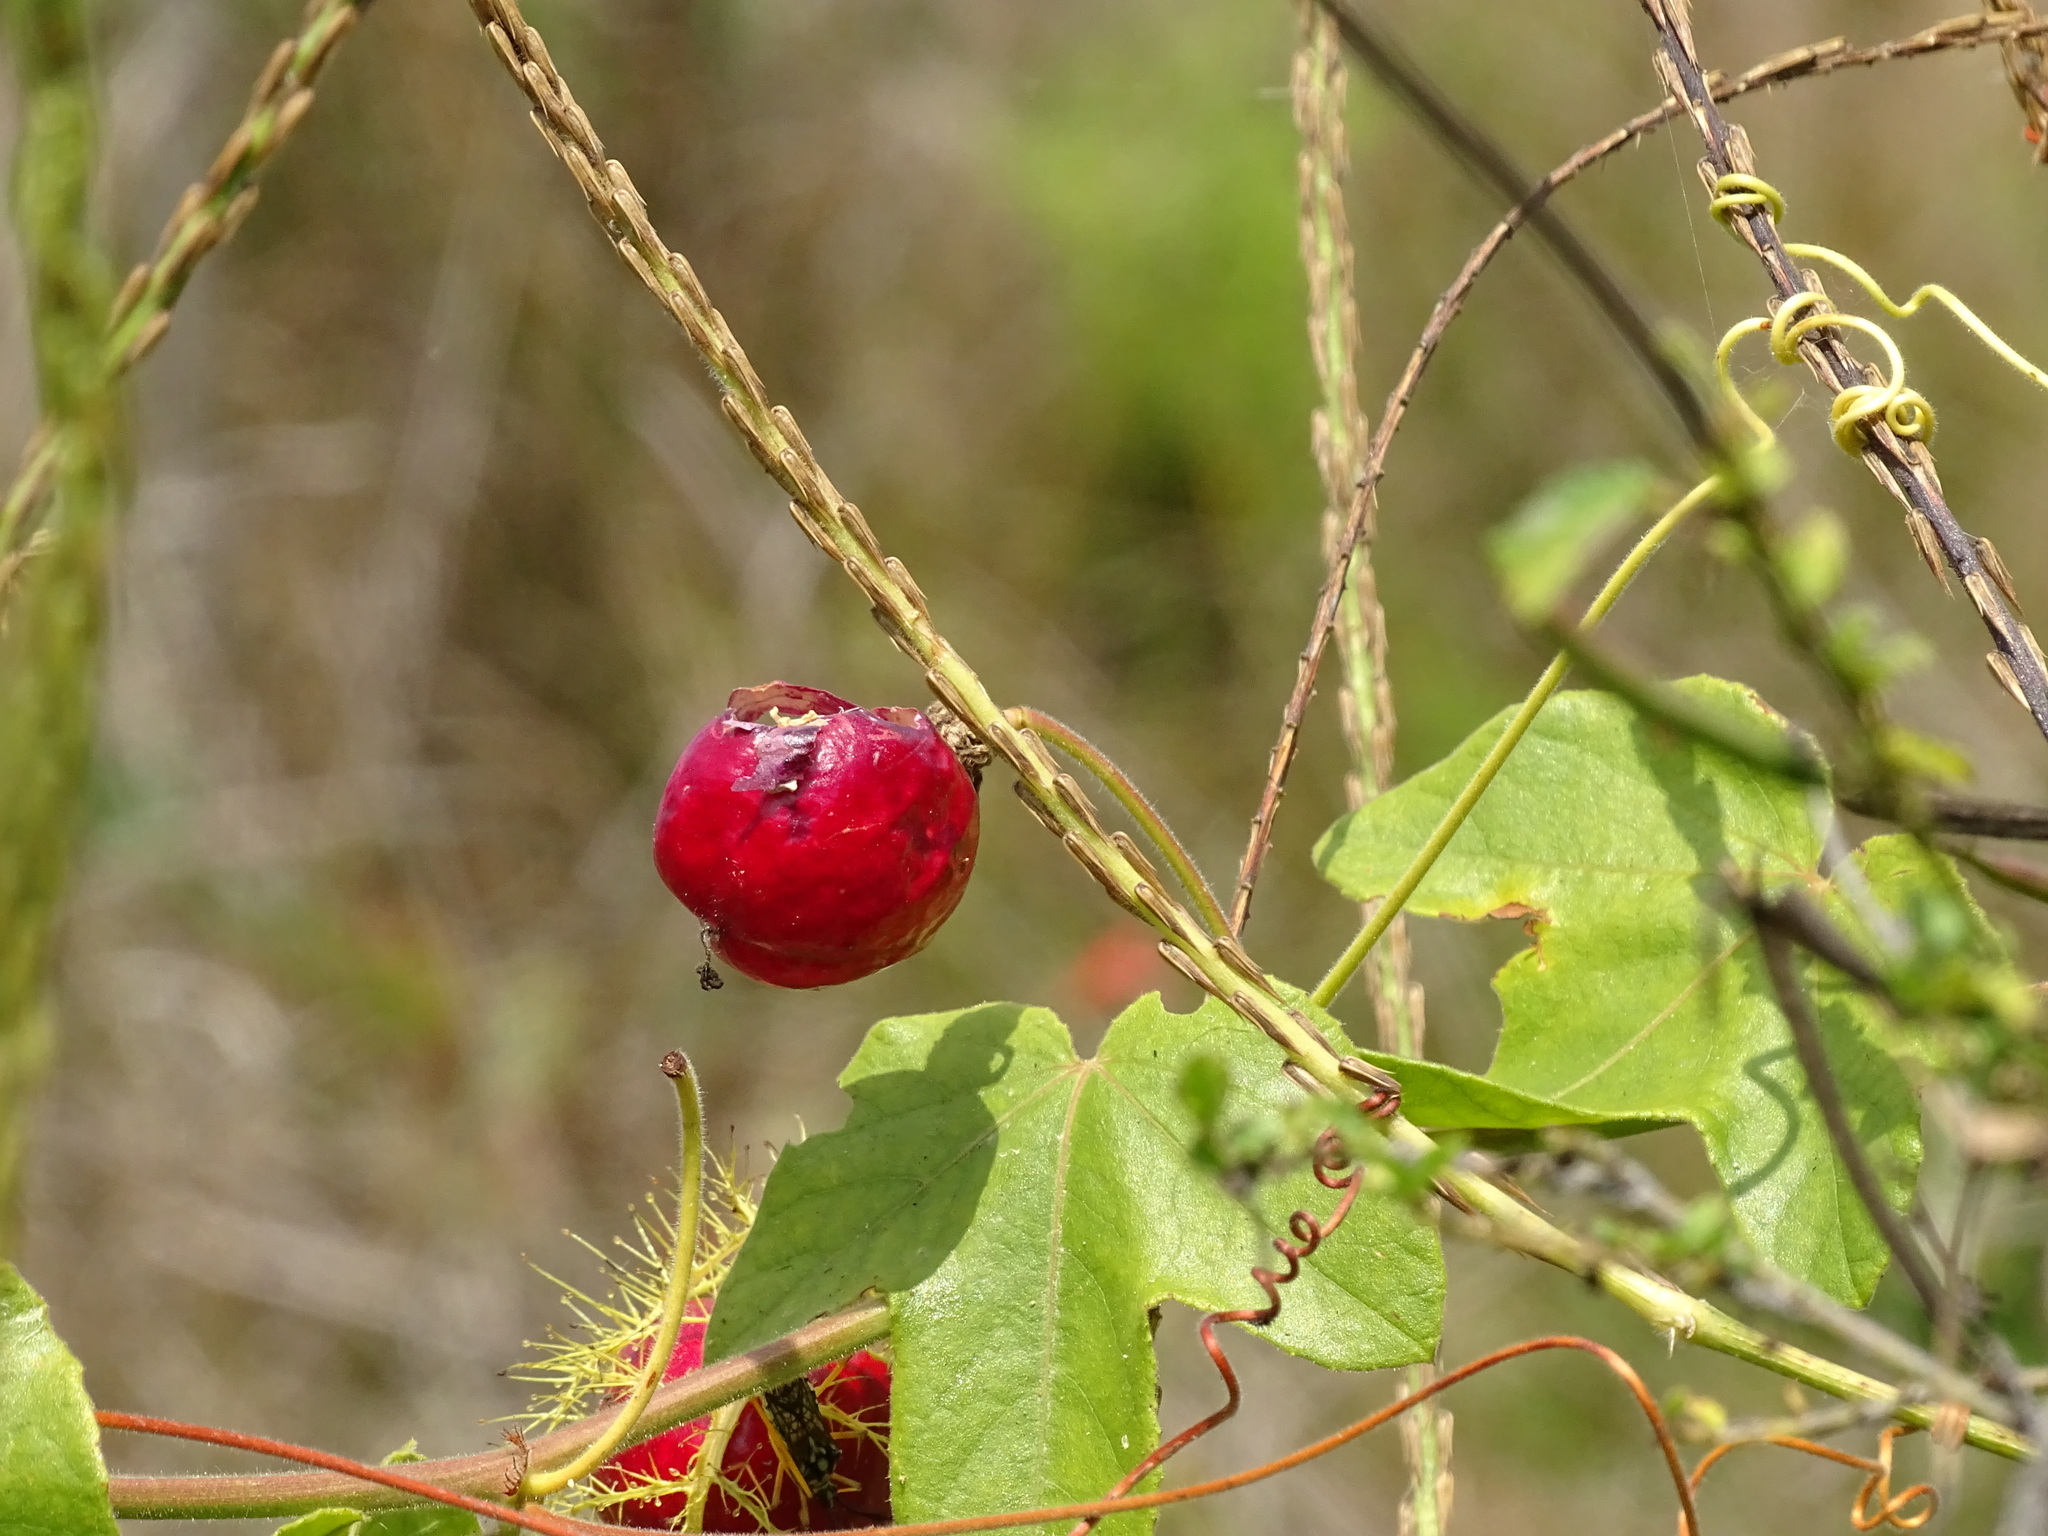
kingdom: Plantae
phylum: Tracheophyta
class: Magnoliopsida
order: Malpighiales
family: Passifloraceae
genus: Passiflora
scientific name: Passiflora ciliata
